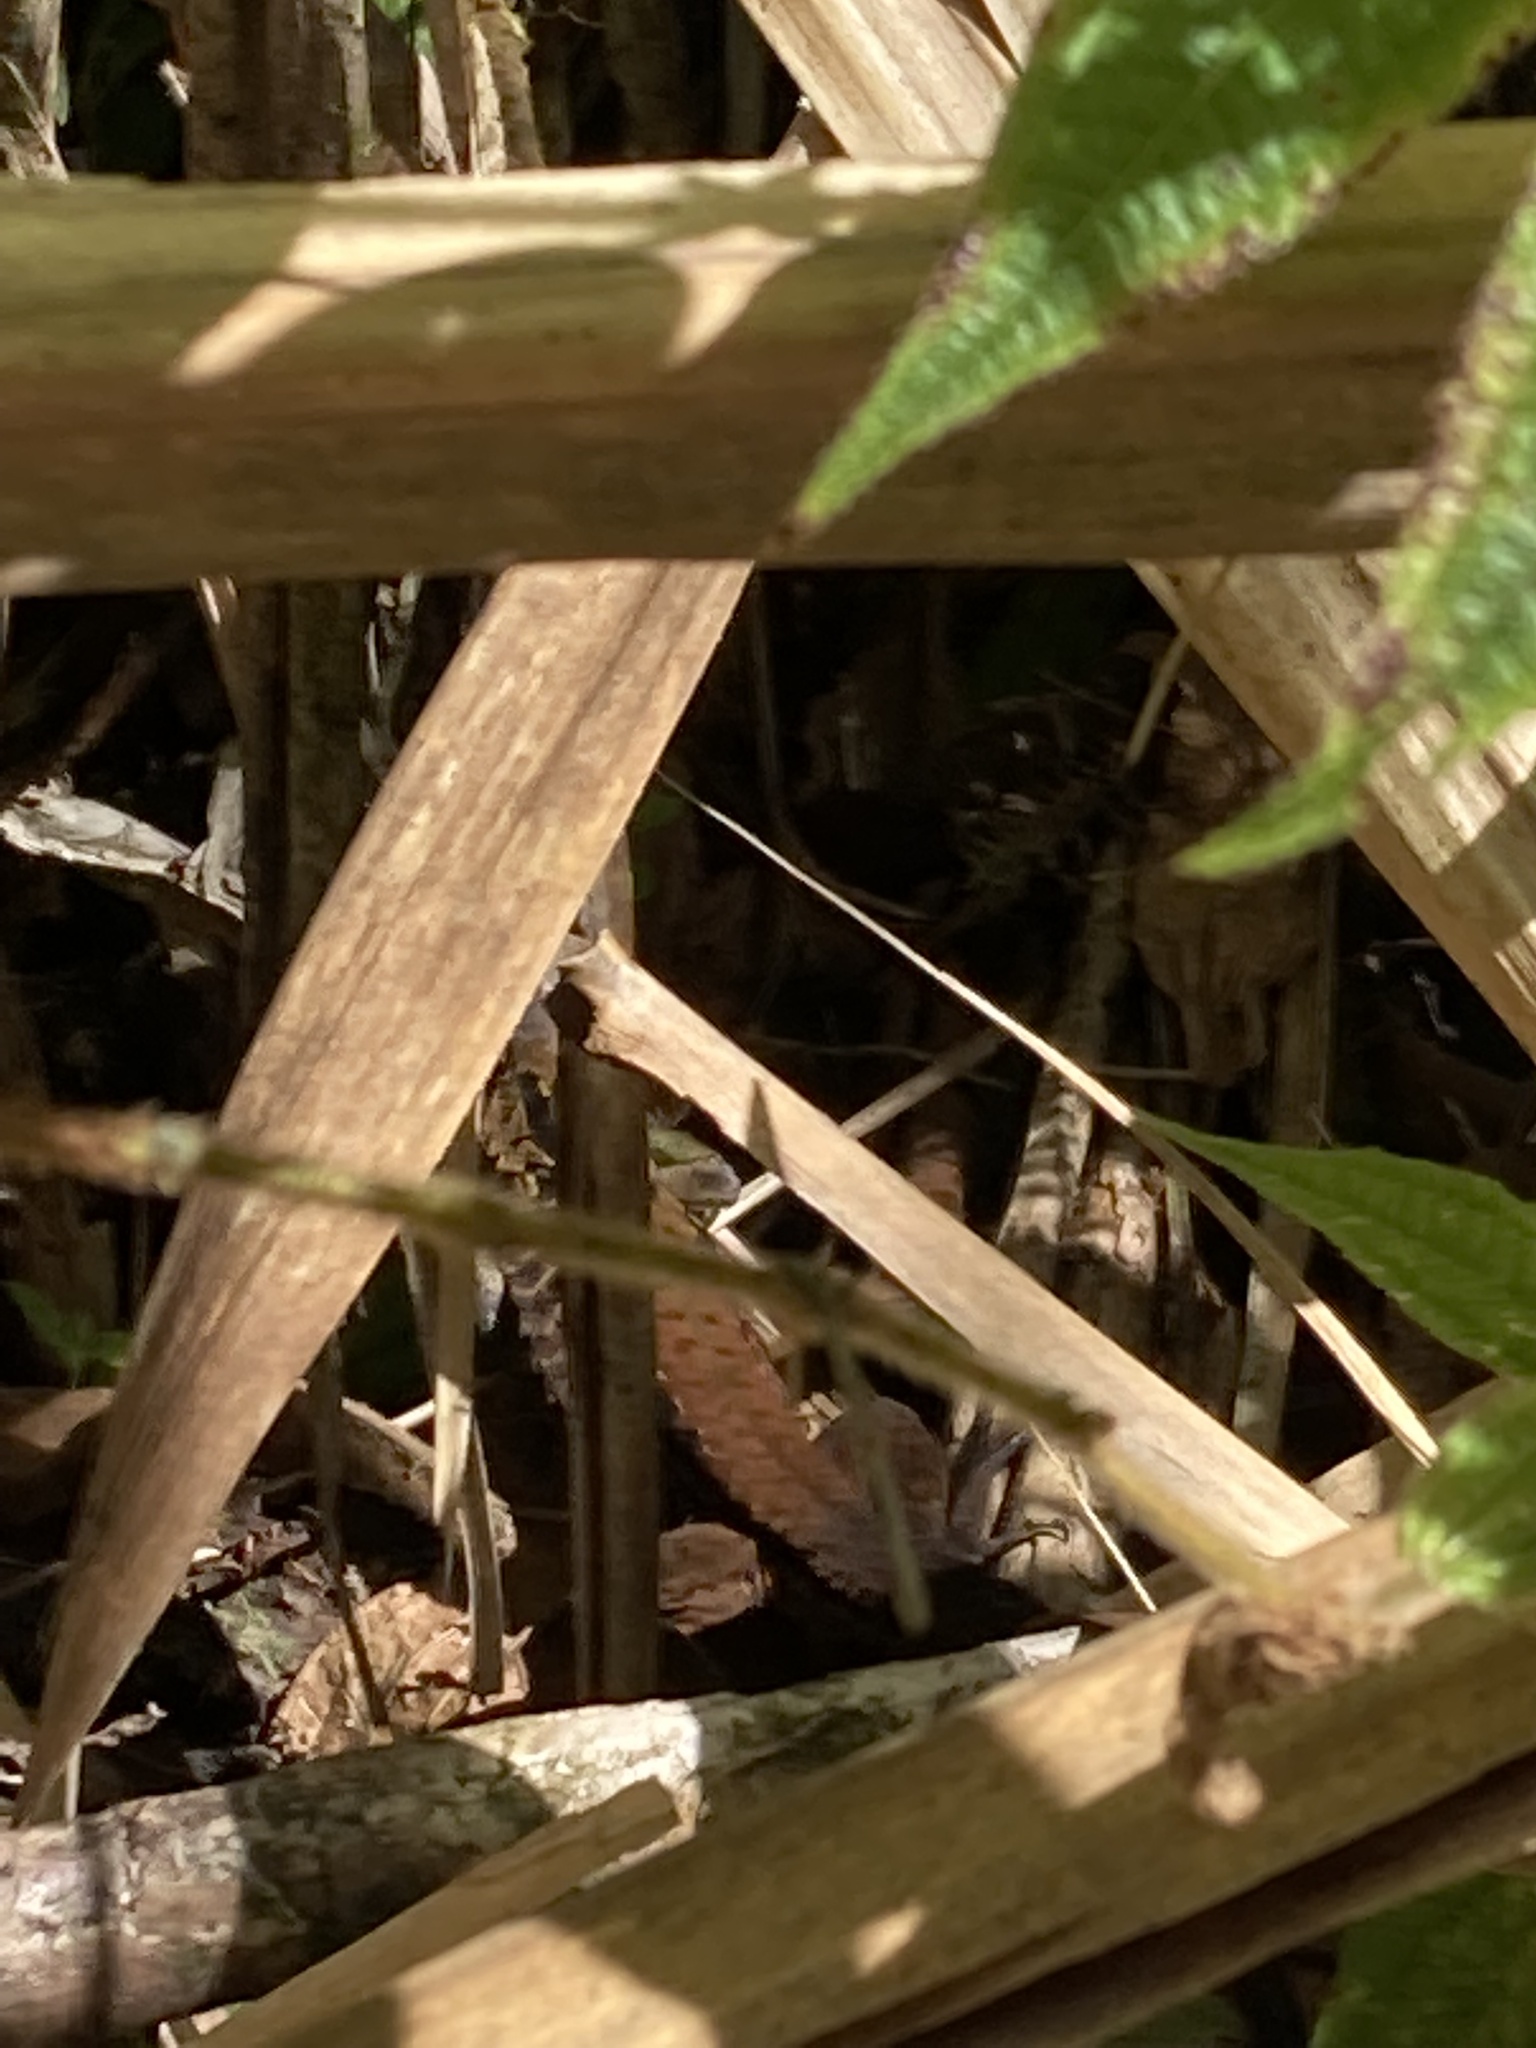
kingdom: Animalia
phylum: Chordata
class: Squamata
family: Teiidae
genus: Holcosus
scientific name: Holcosus festivus
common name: Middle american ameiva
